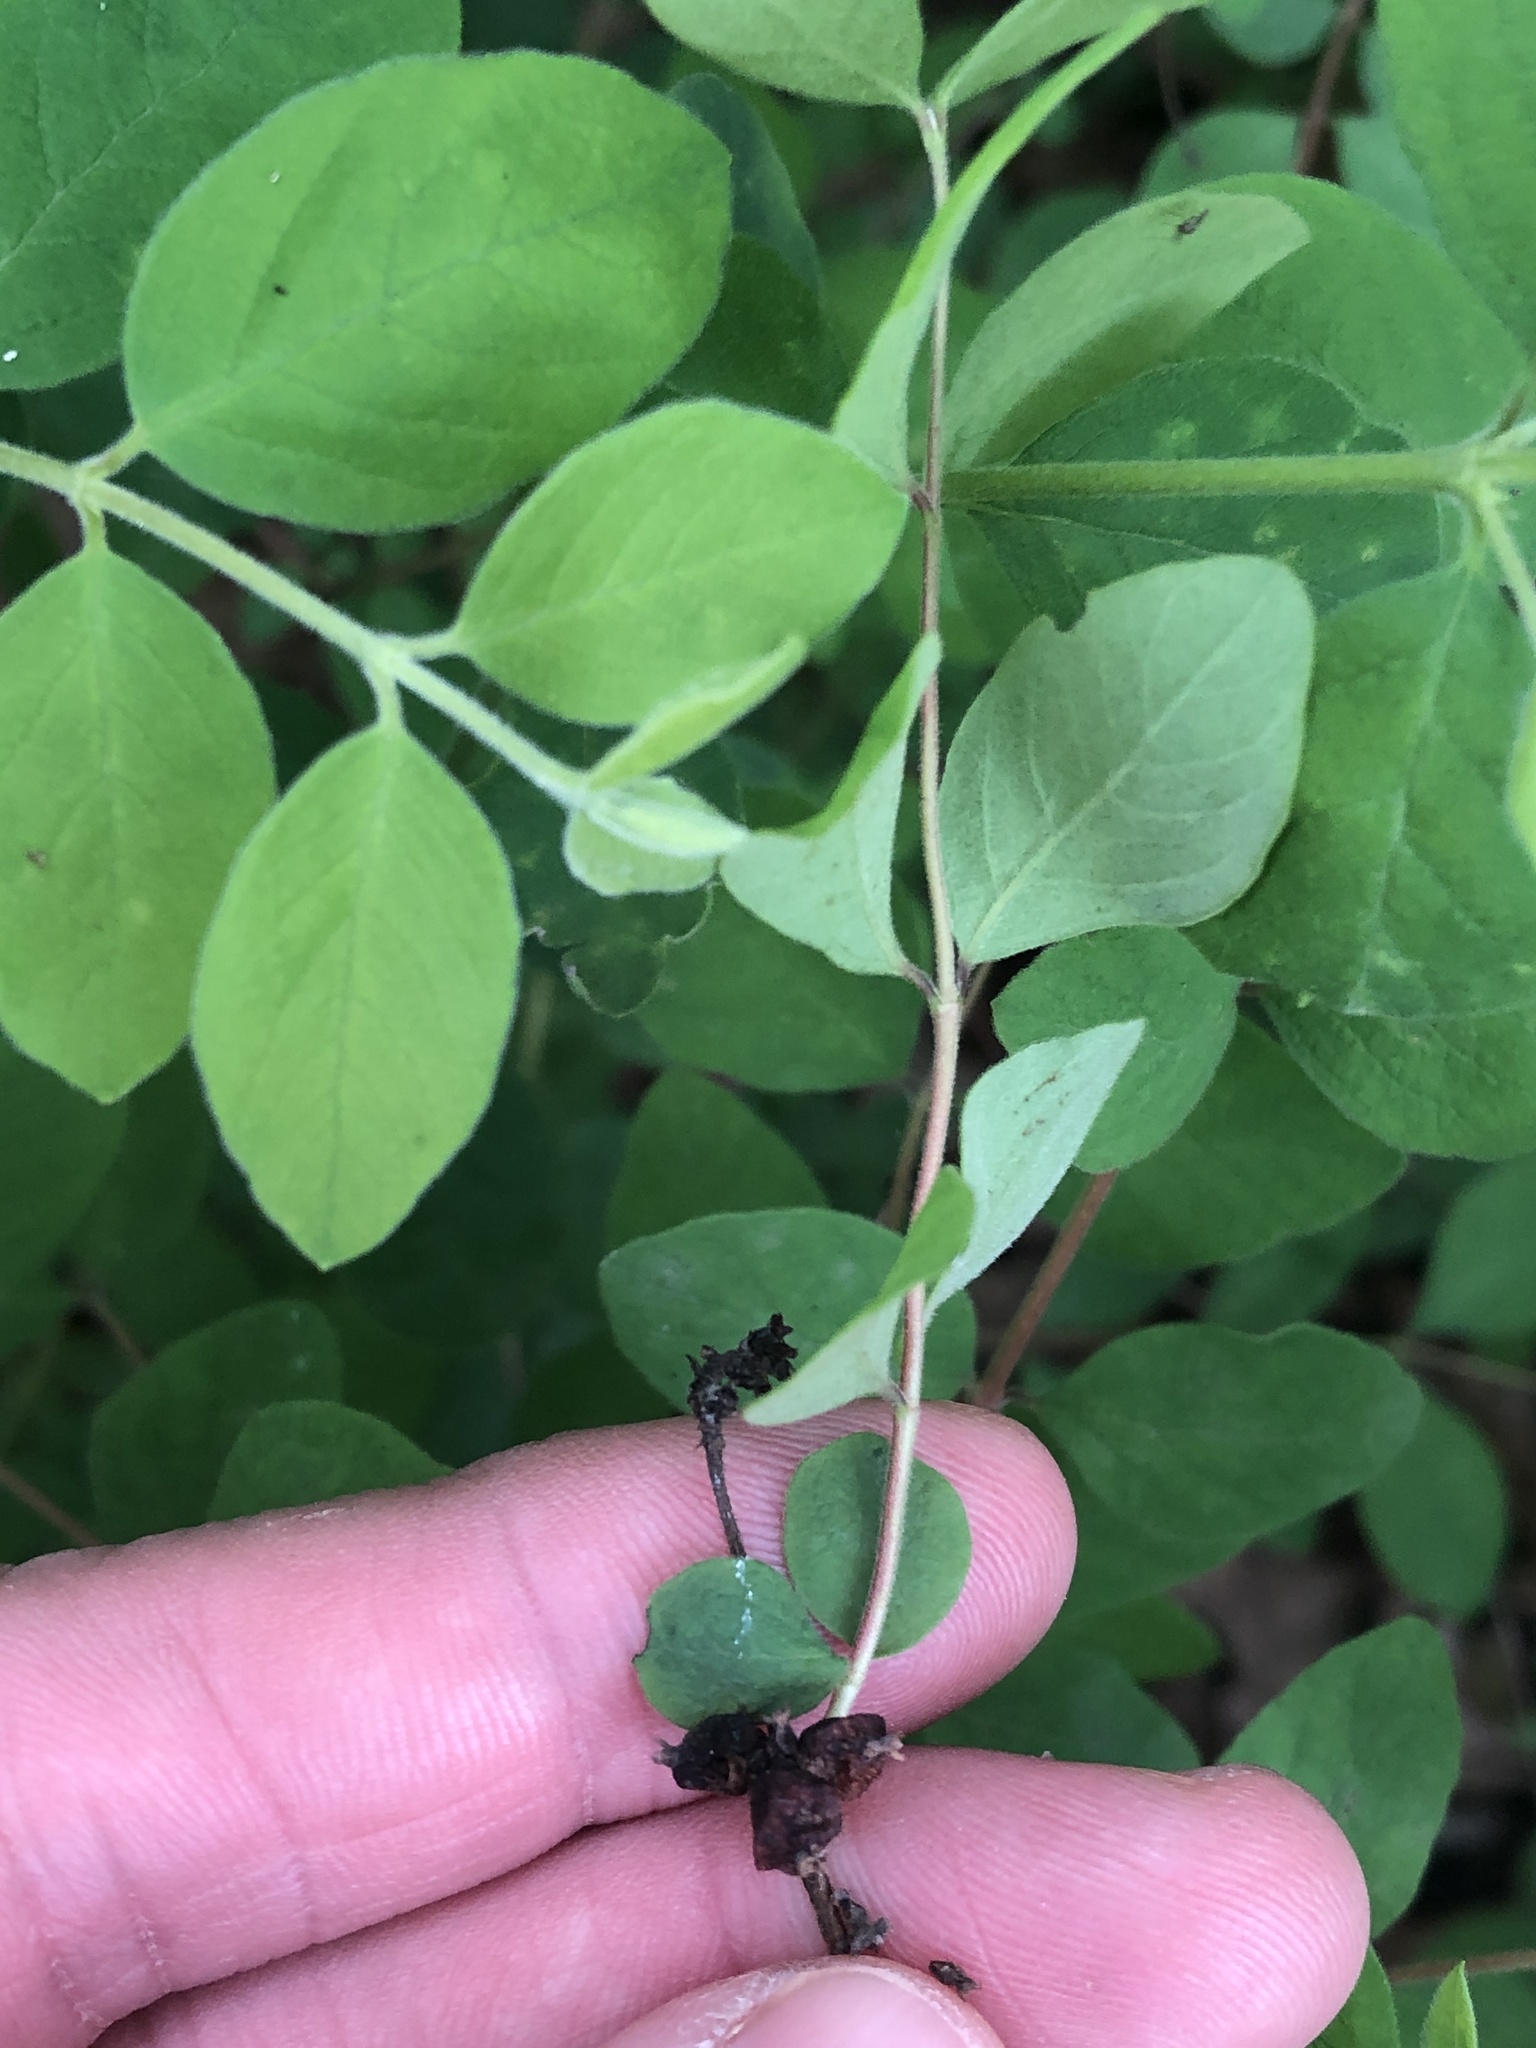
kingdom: Plantae
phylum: Tracheophyta
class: Magnoliopsida
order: Dipsacales
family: Caprifoliaceae
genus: Symphoricarpos
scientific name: Symphoricarpos orbiculatus
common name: Coralberry
